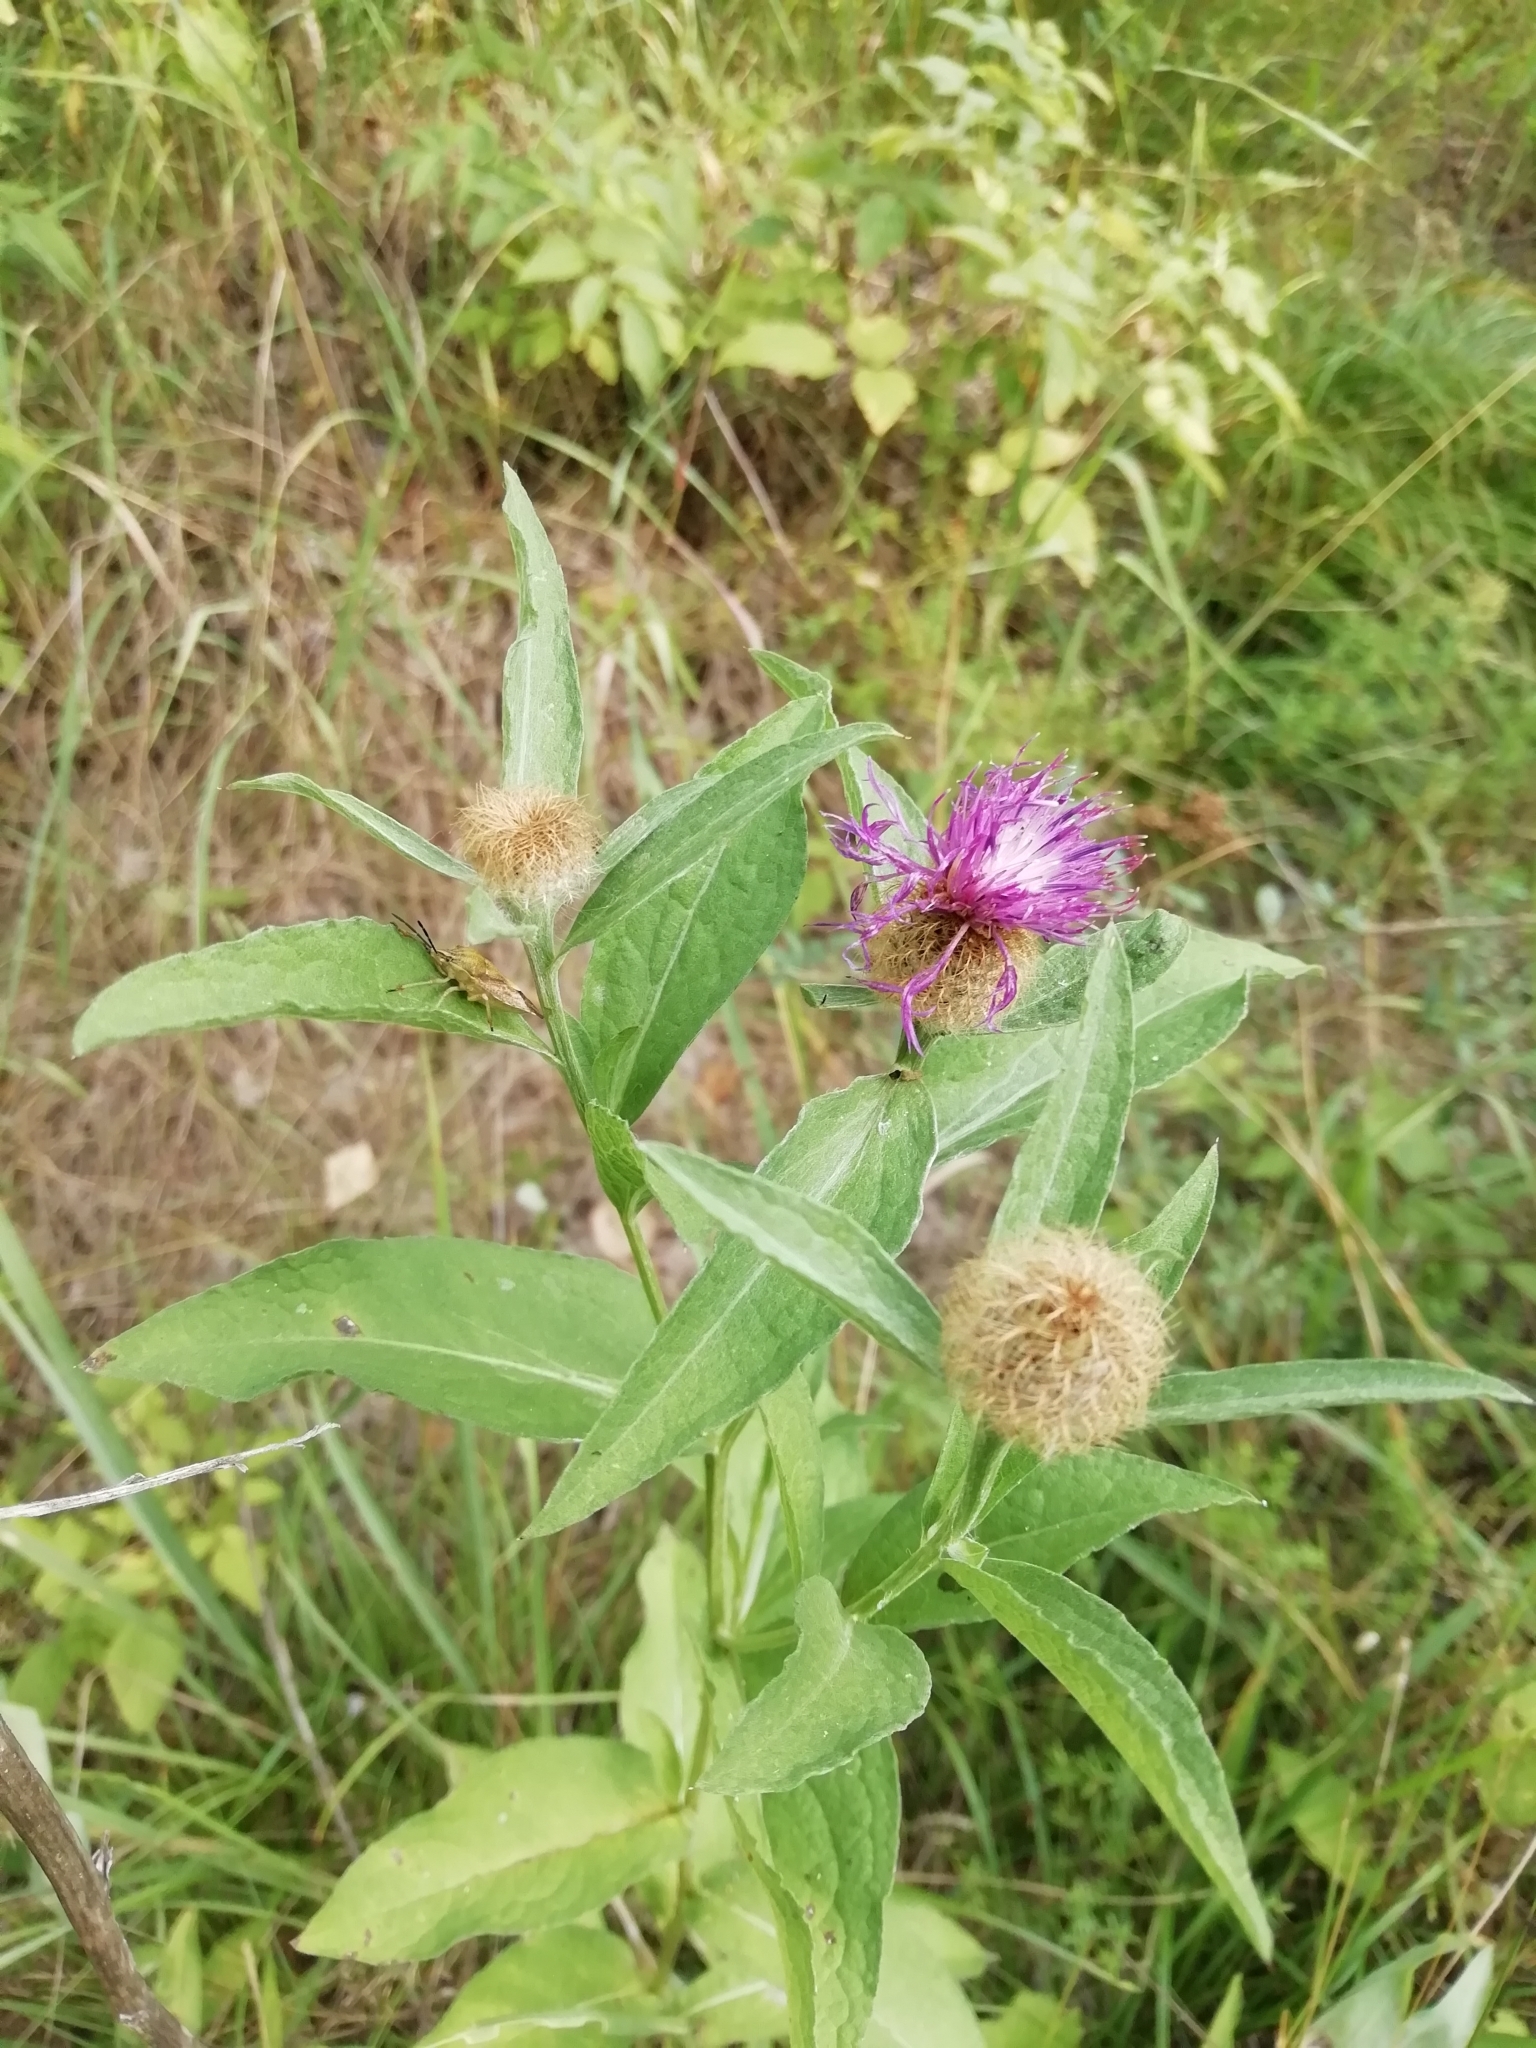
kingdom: Plantae
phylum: Tracheophyta
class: Magnoliopsida
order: Asterales
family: Asteraceae
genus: Centaurea
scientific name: Centaurea pseudophrygia
